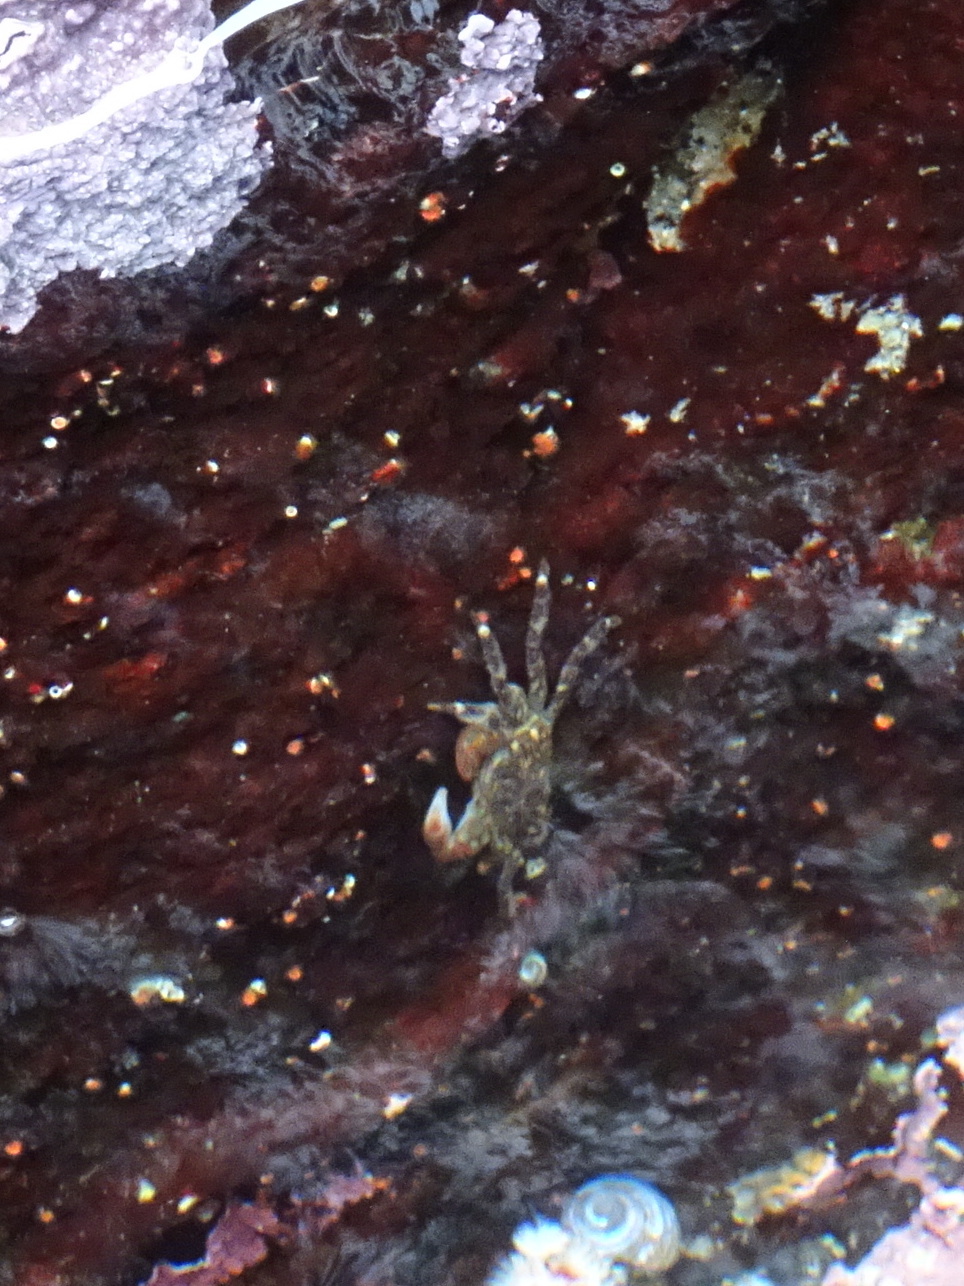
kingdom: Animalia
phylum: Arthropoda
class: Malacostraca
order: Decapoda
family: Grapsidae
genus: Pachygrapsus
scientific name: Pachygrapsus crassipes
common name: Striped shore crab
